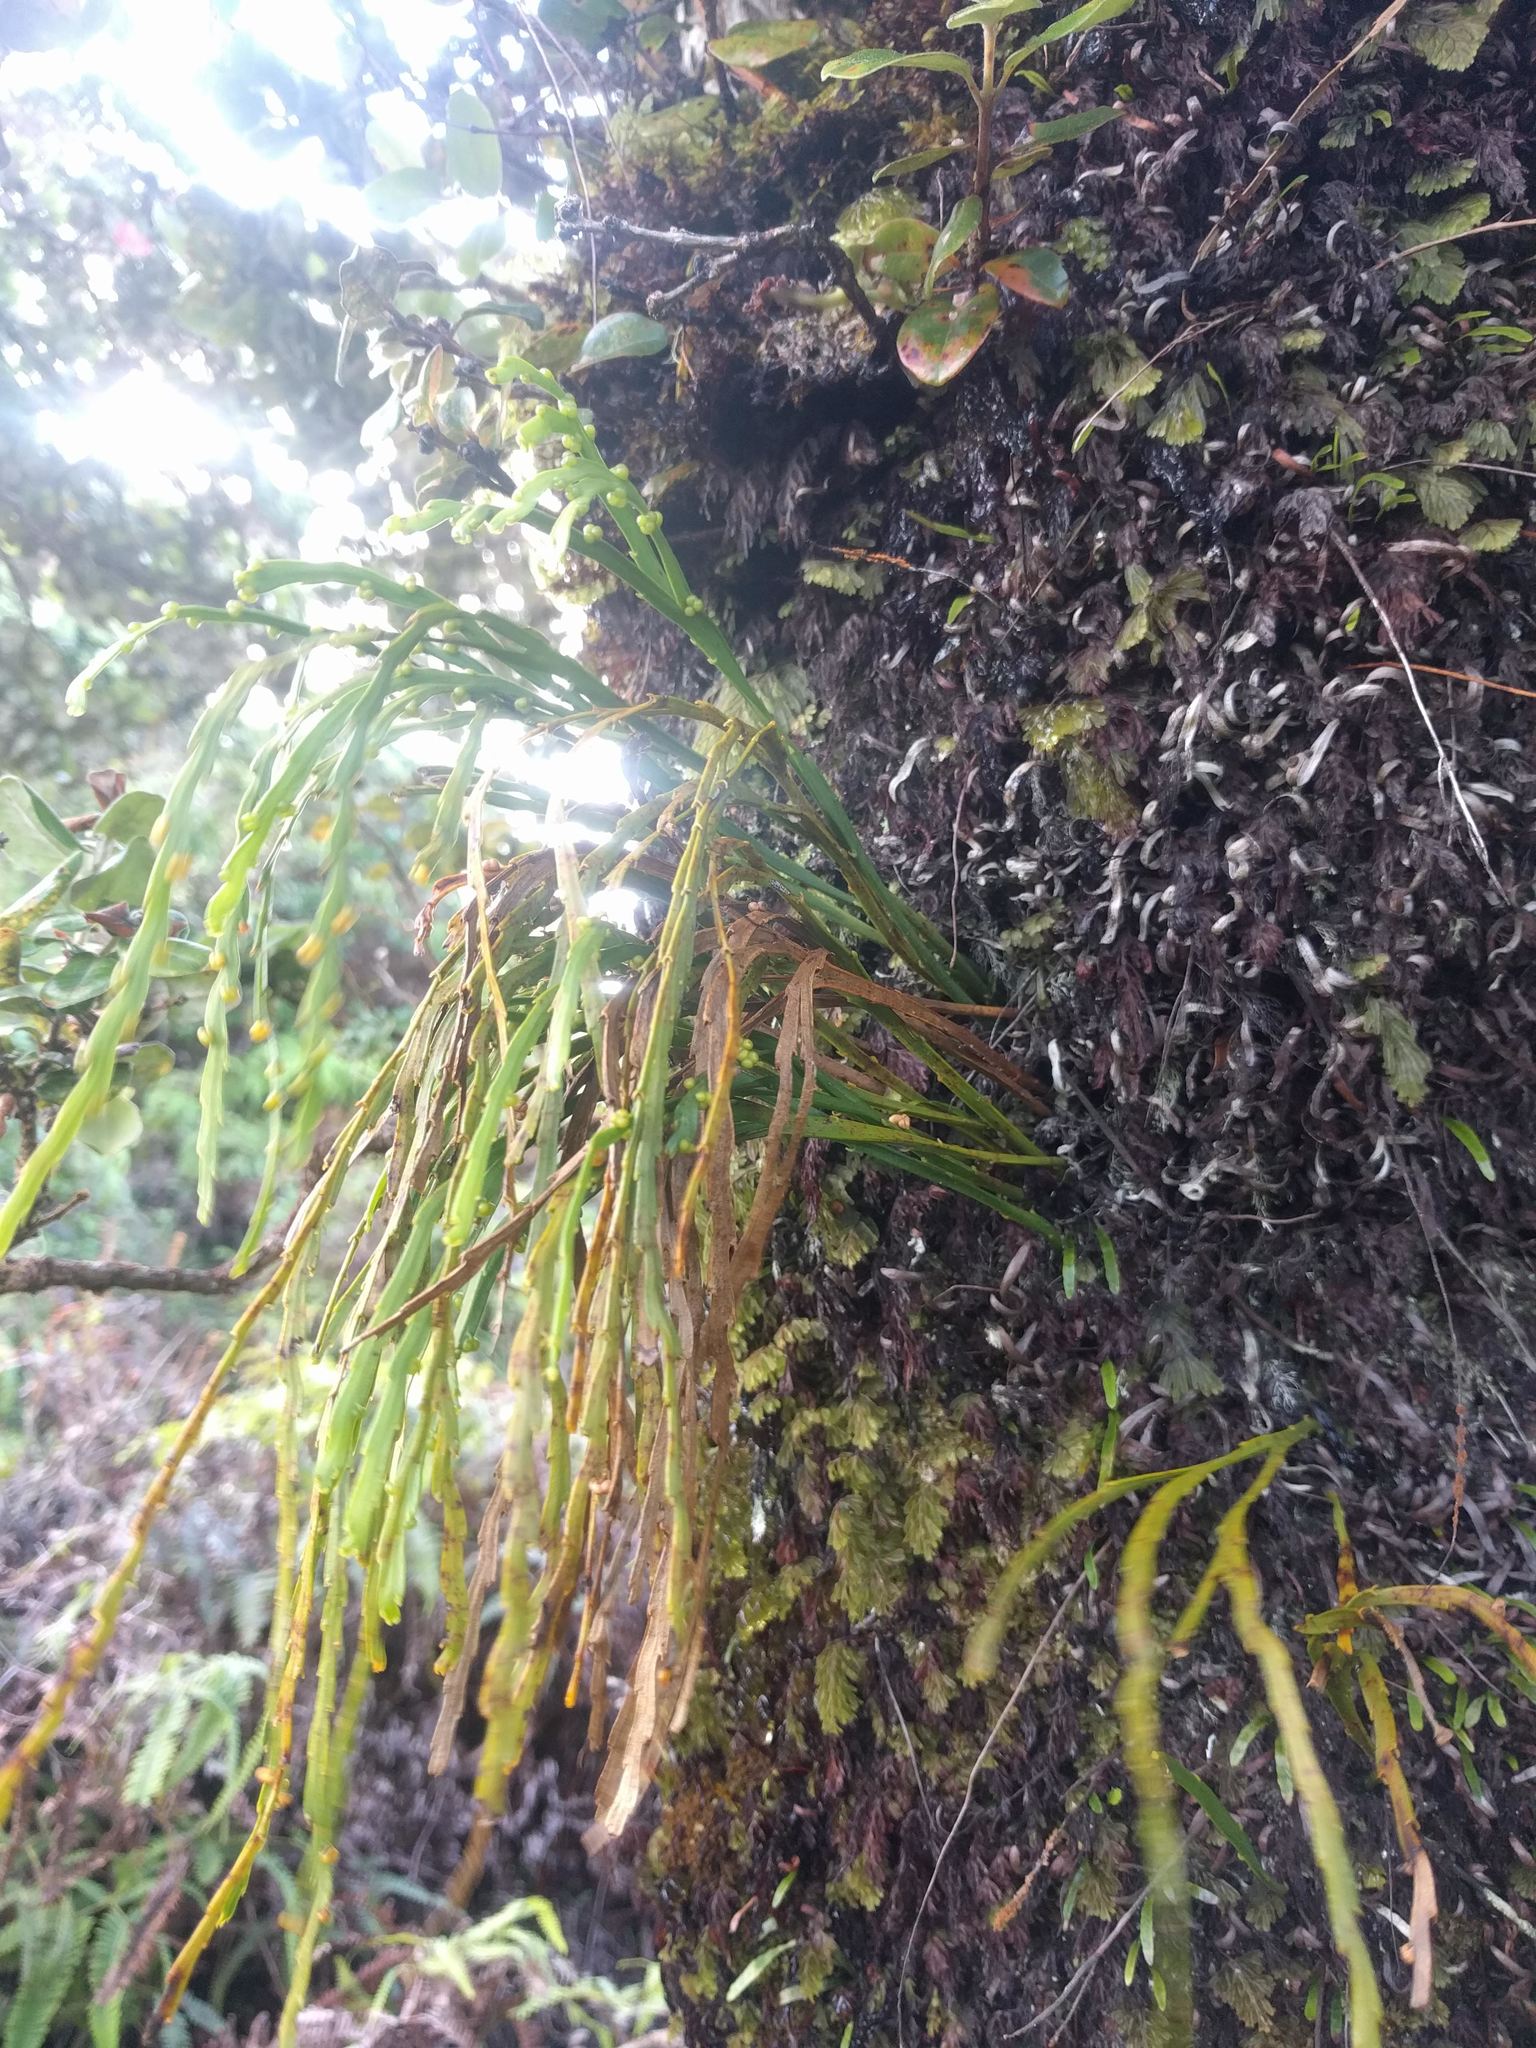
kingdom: Plantae
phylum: Tracheophyta
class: Polypodiopsida
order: Psilotales
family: Psilotaceae
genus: Psilotum
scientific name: Psilotum complanatum
